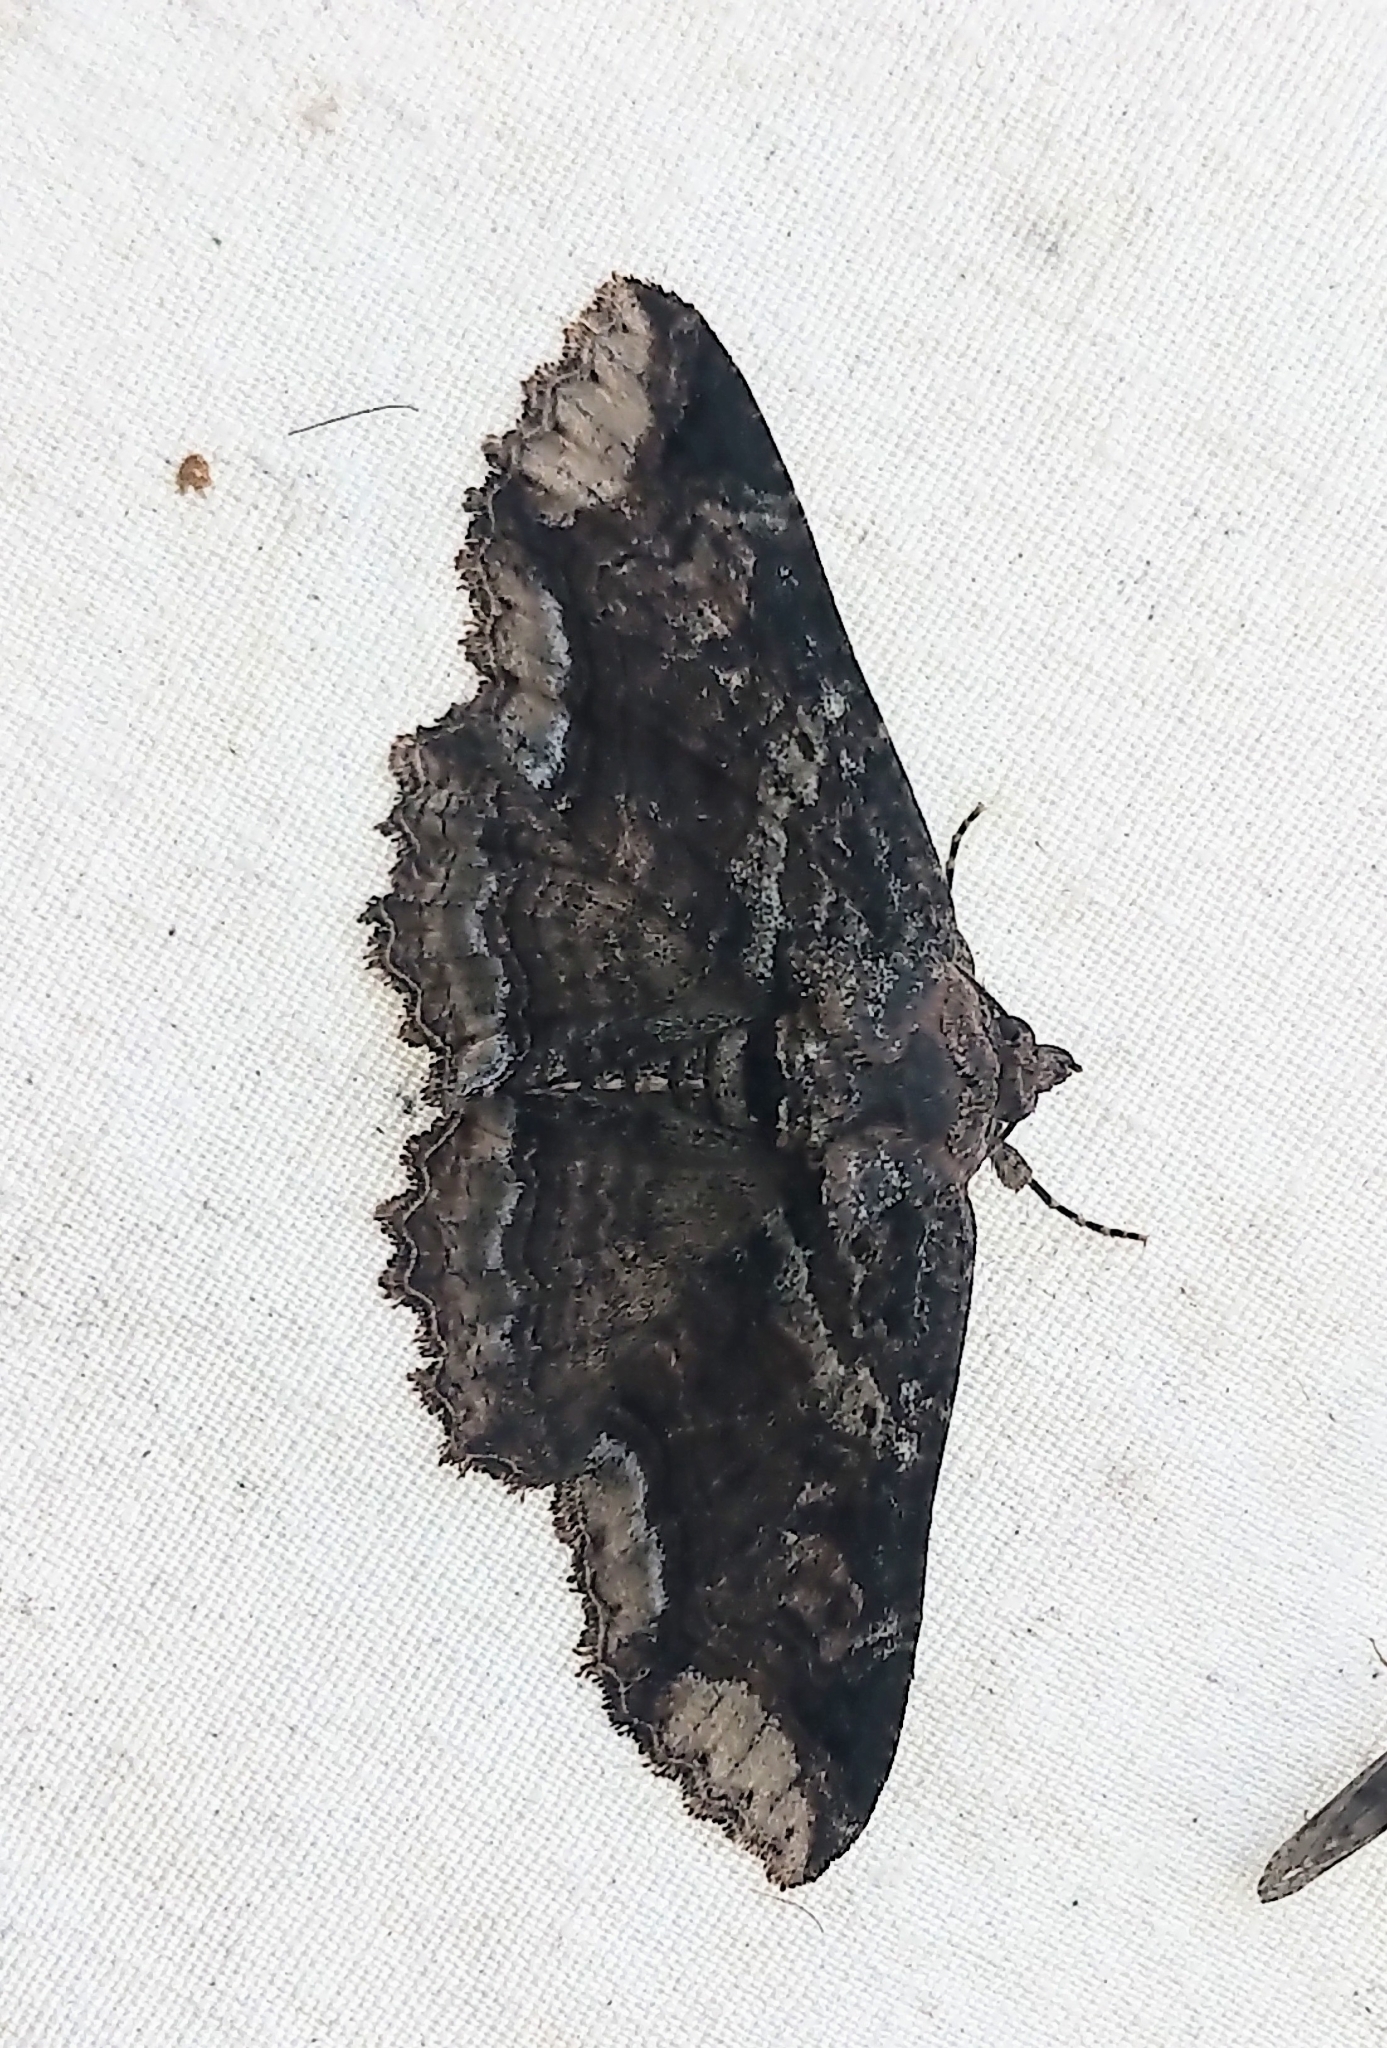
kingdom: Animalia
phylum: Arthropoda
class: Insecta
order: Lepidoptera
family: Erebidae
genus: Zale
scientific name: Zale minerea
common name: Colorful zale moth
